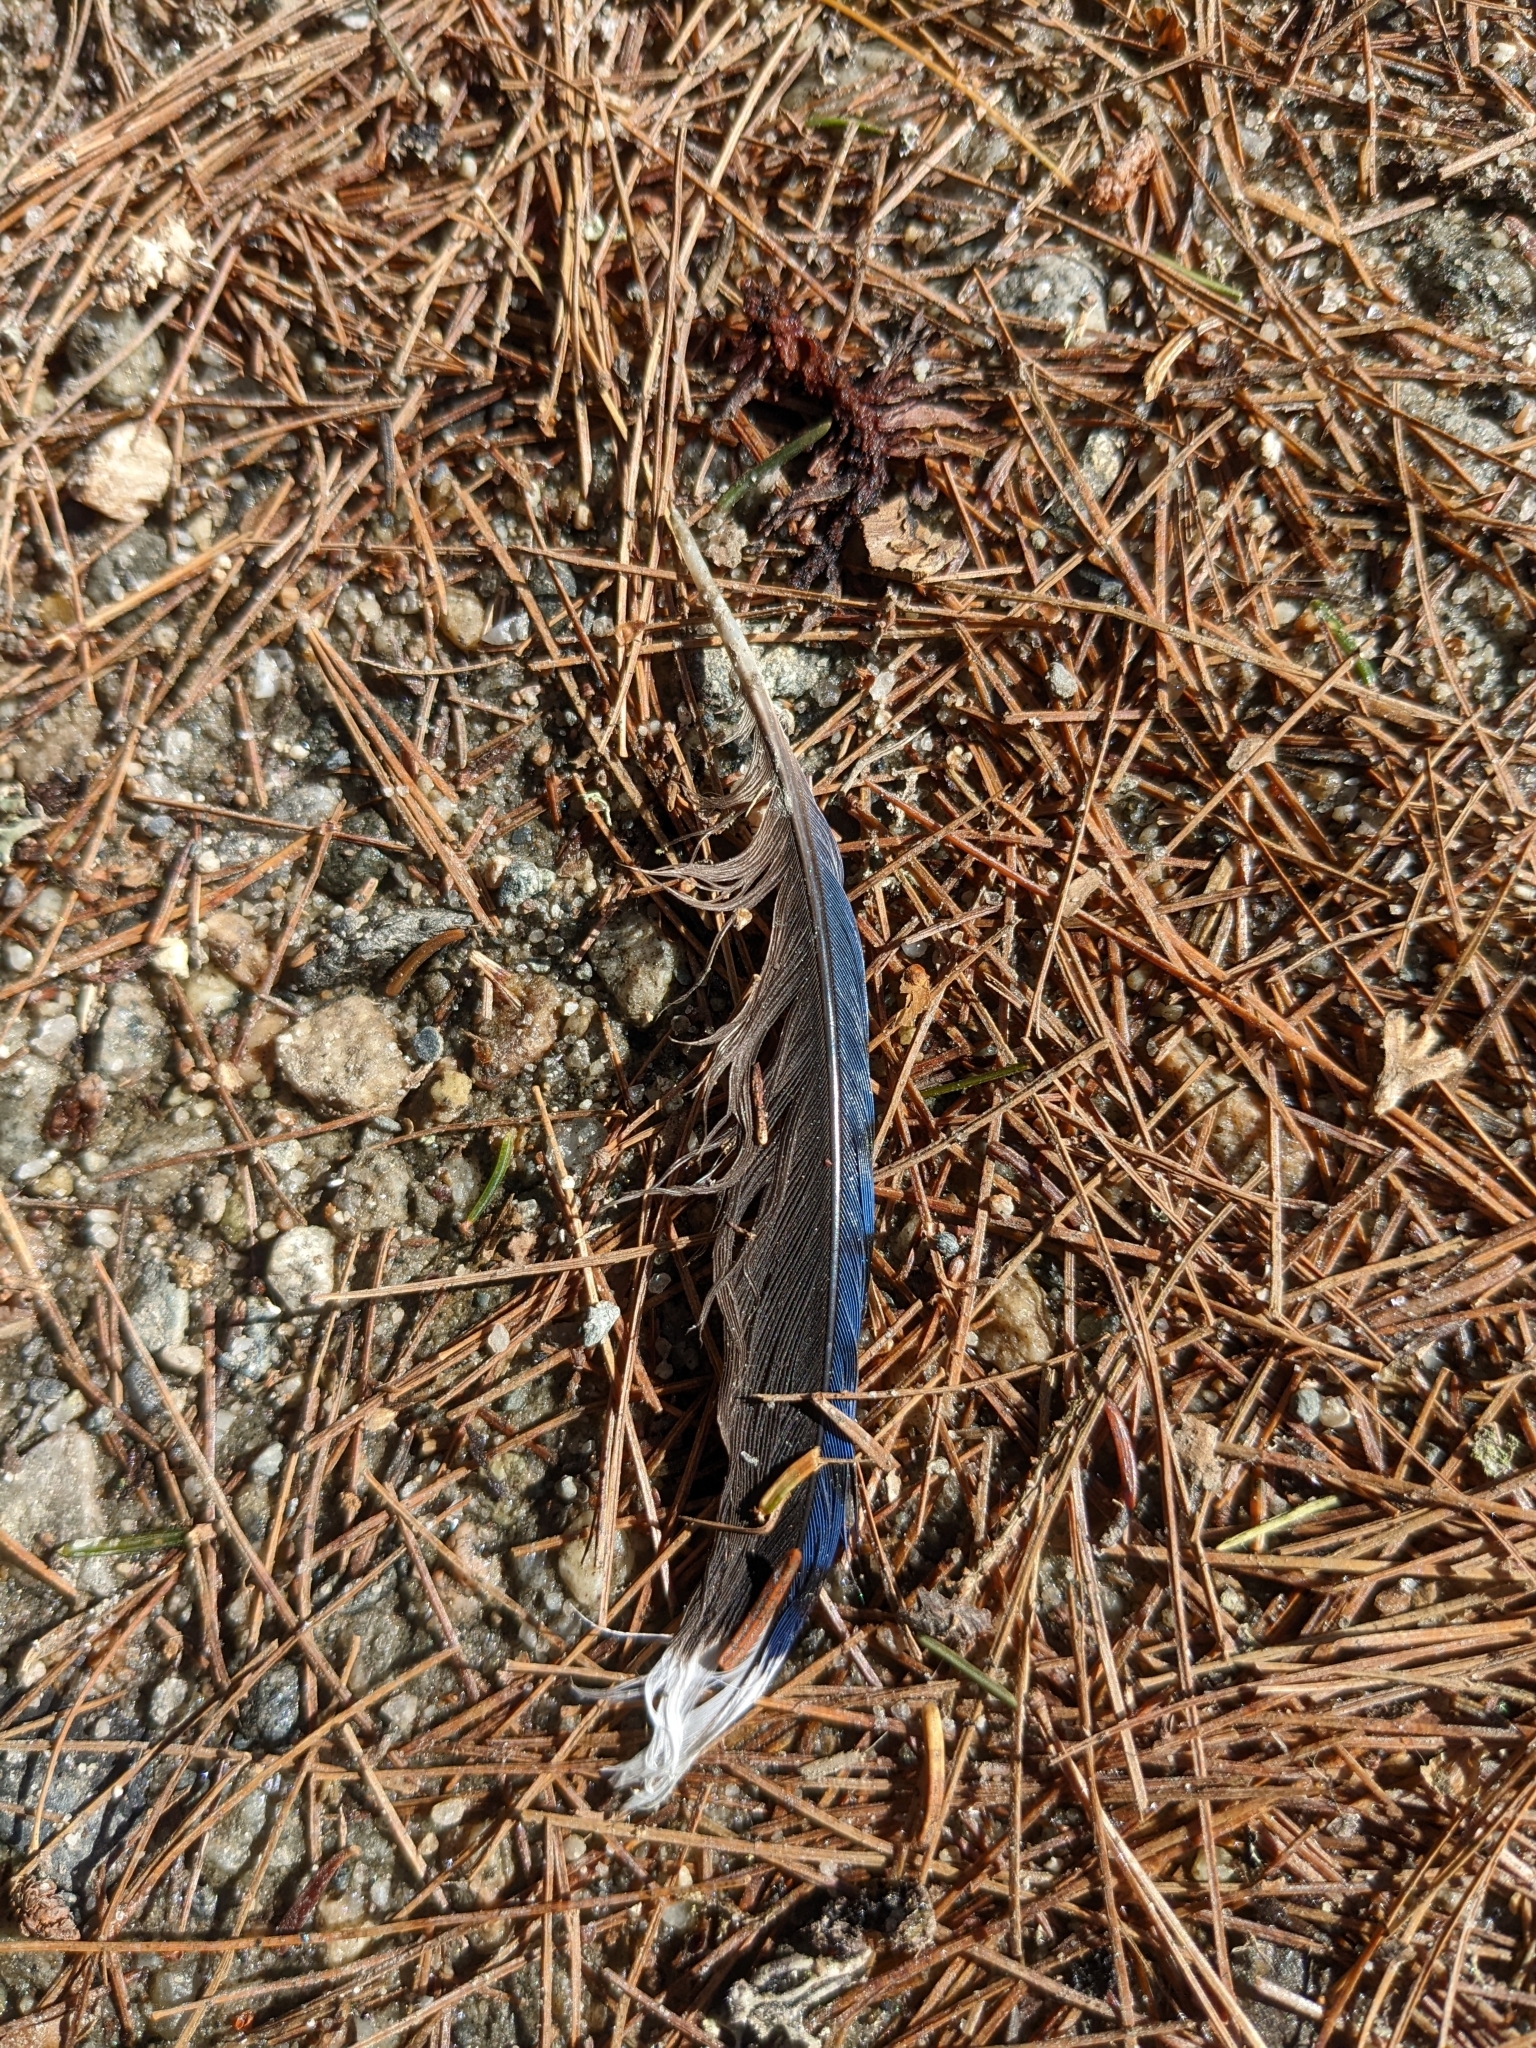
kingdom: Animalia
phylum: Chordata
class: Aves
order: Passeriformes
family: Corvidae
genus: Cyanocitta
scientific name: Cyanocitta cristata
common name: Blue jay
